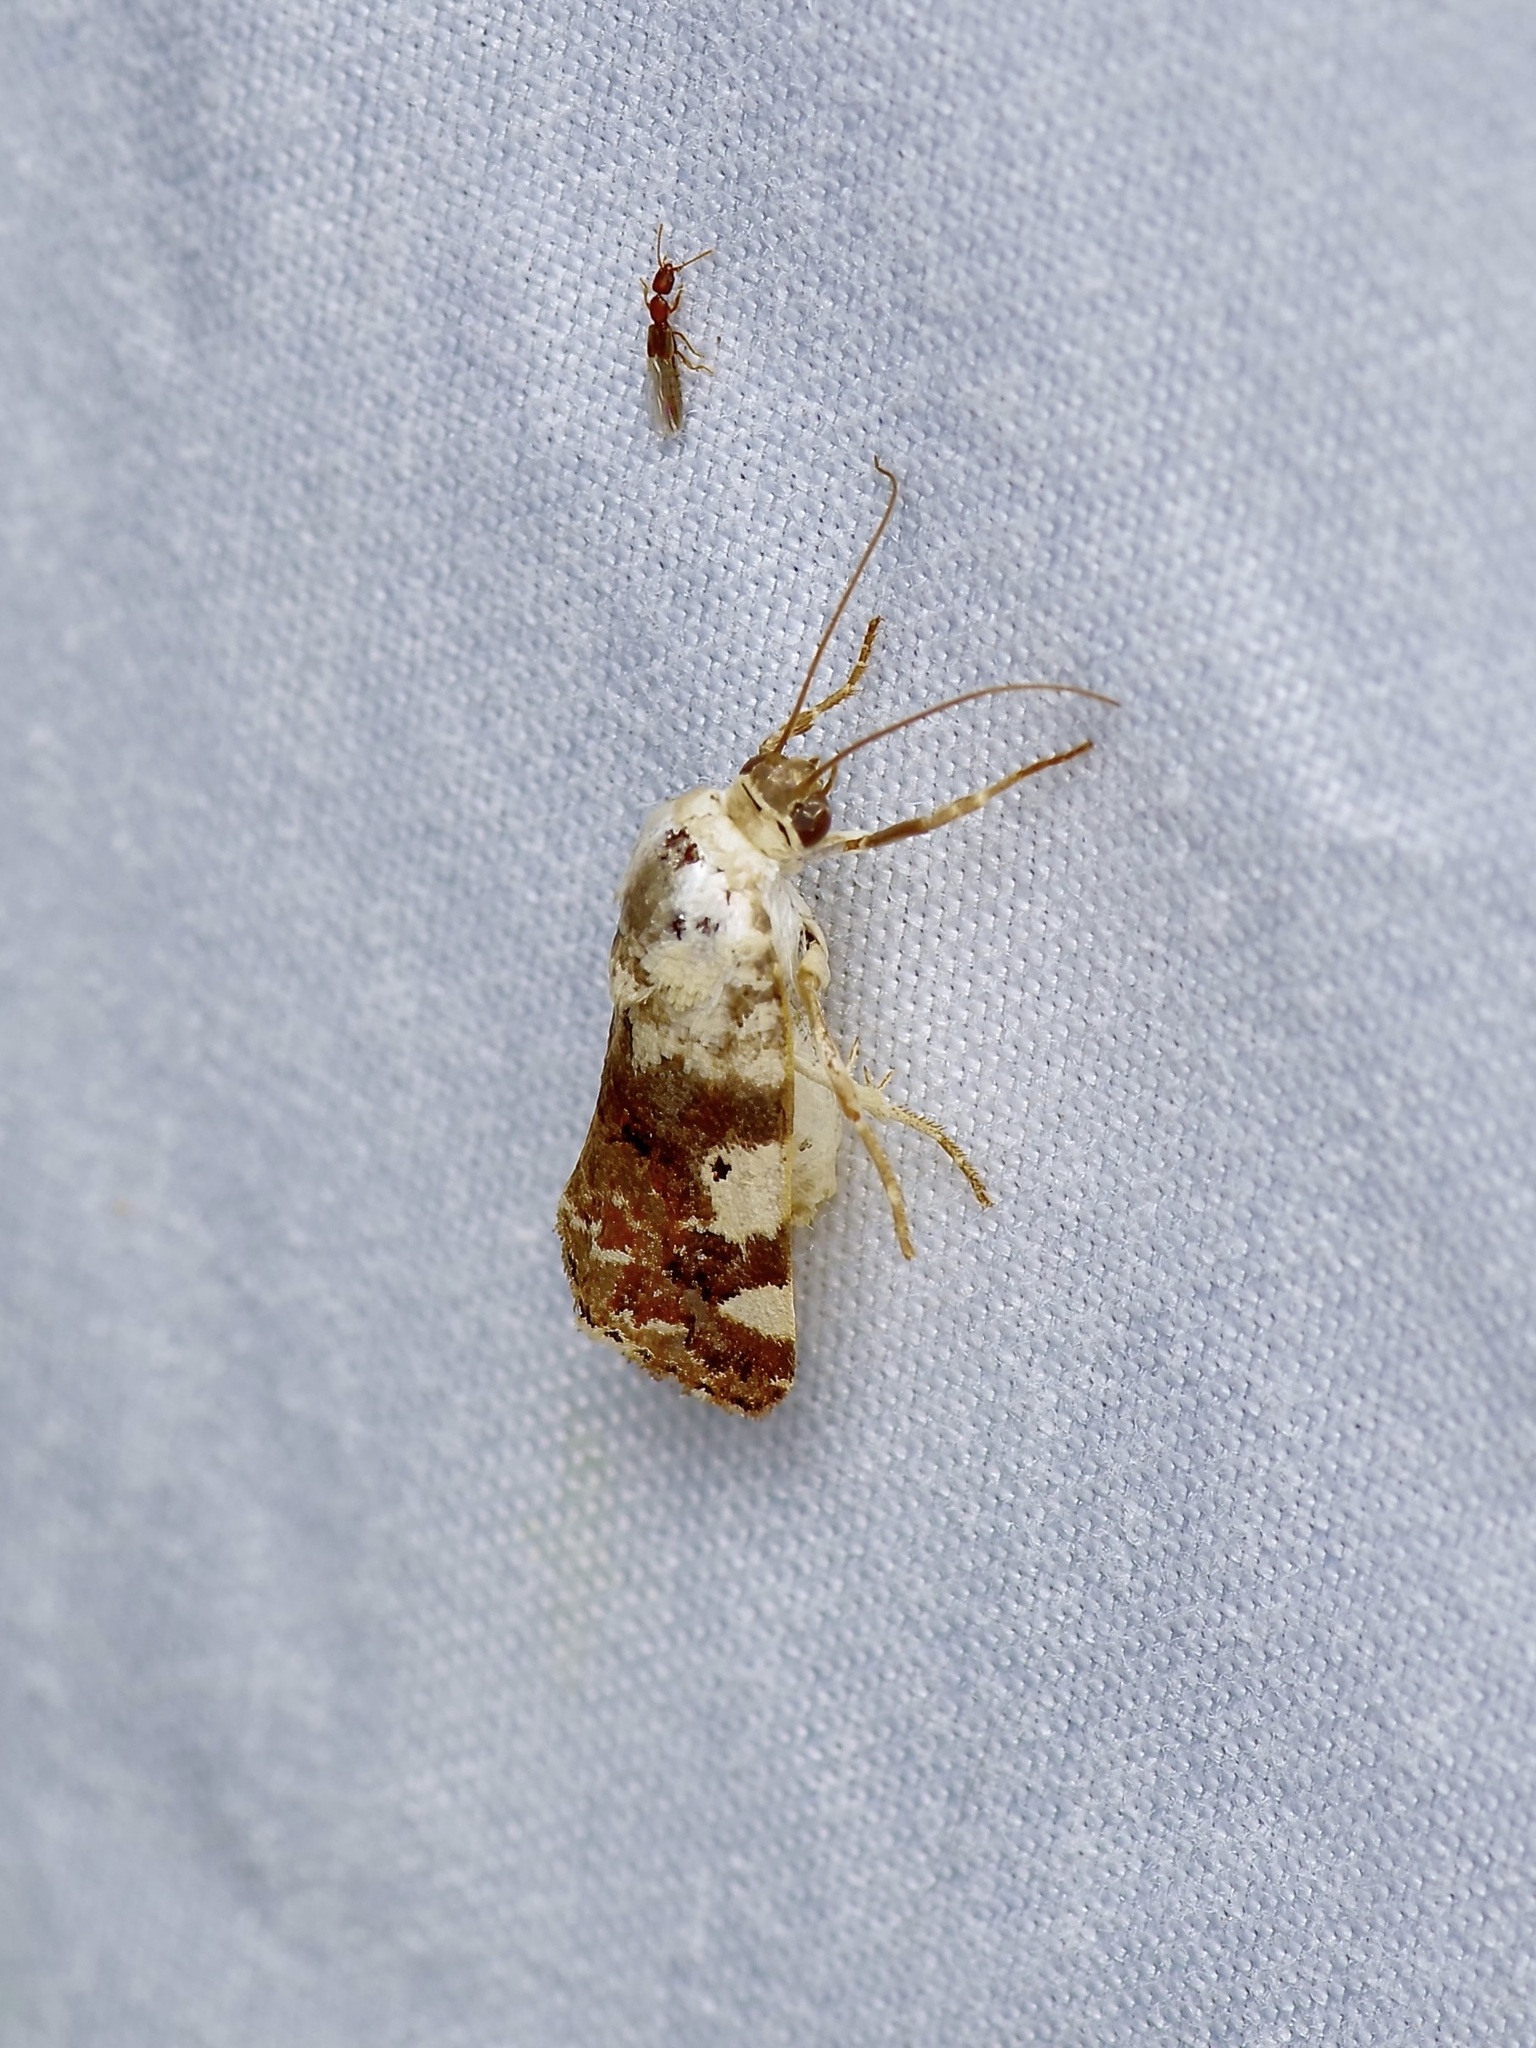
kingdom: Animalia
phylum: Arthropoda
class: Insecta
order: Lepidoptera
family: Noctuidae
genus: Acontia
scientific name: Acontia aprica
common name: Nun
